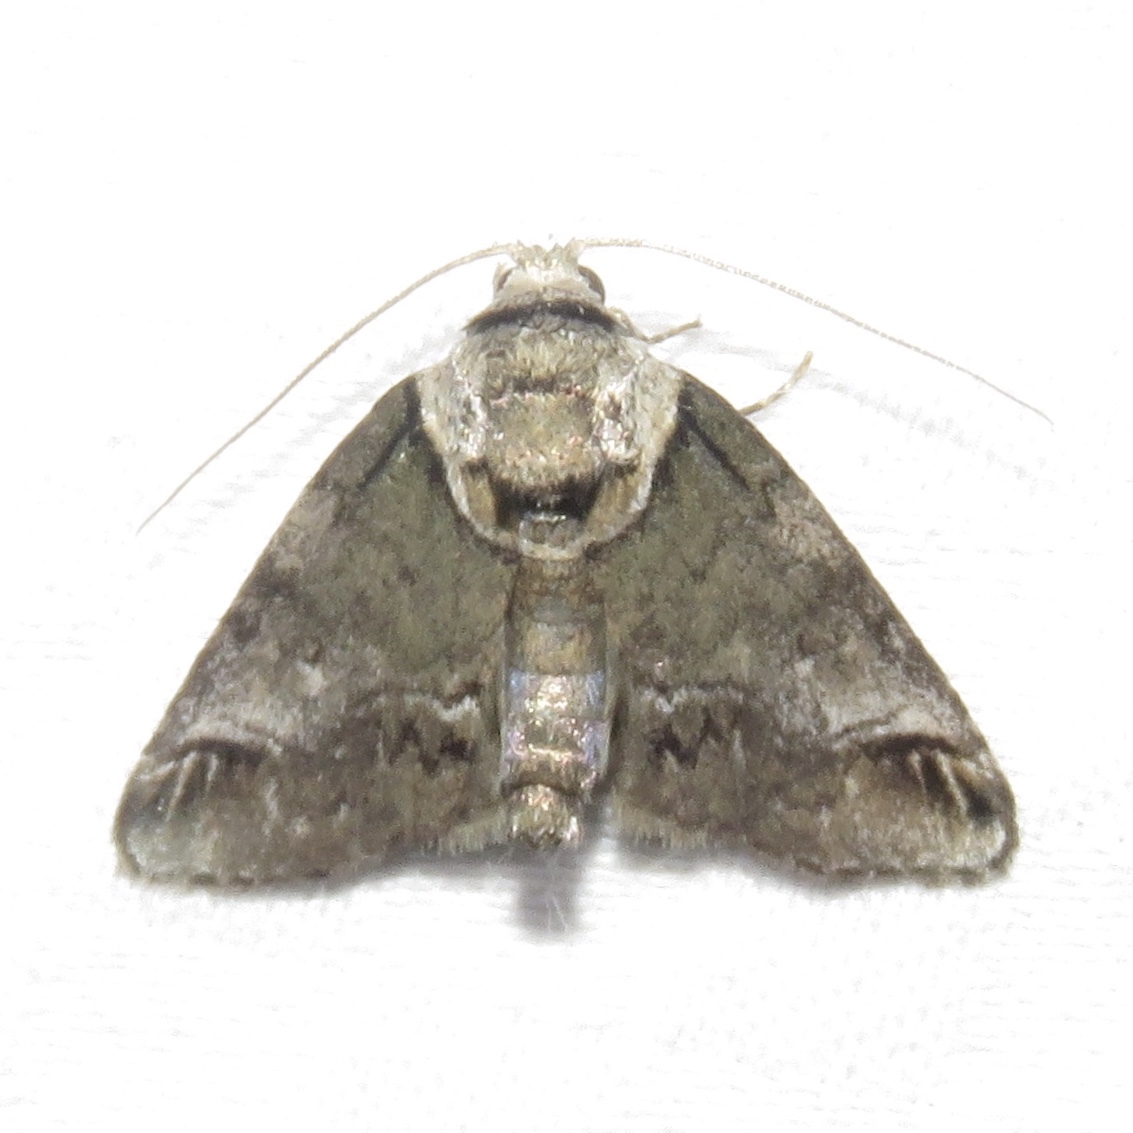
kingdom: Animalia
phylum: Arthropoda
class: Insecta
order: Lepidoptera
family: Nolidae
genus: Baileya
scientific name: Baileya australis
